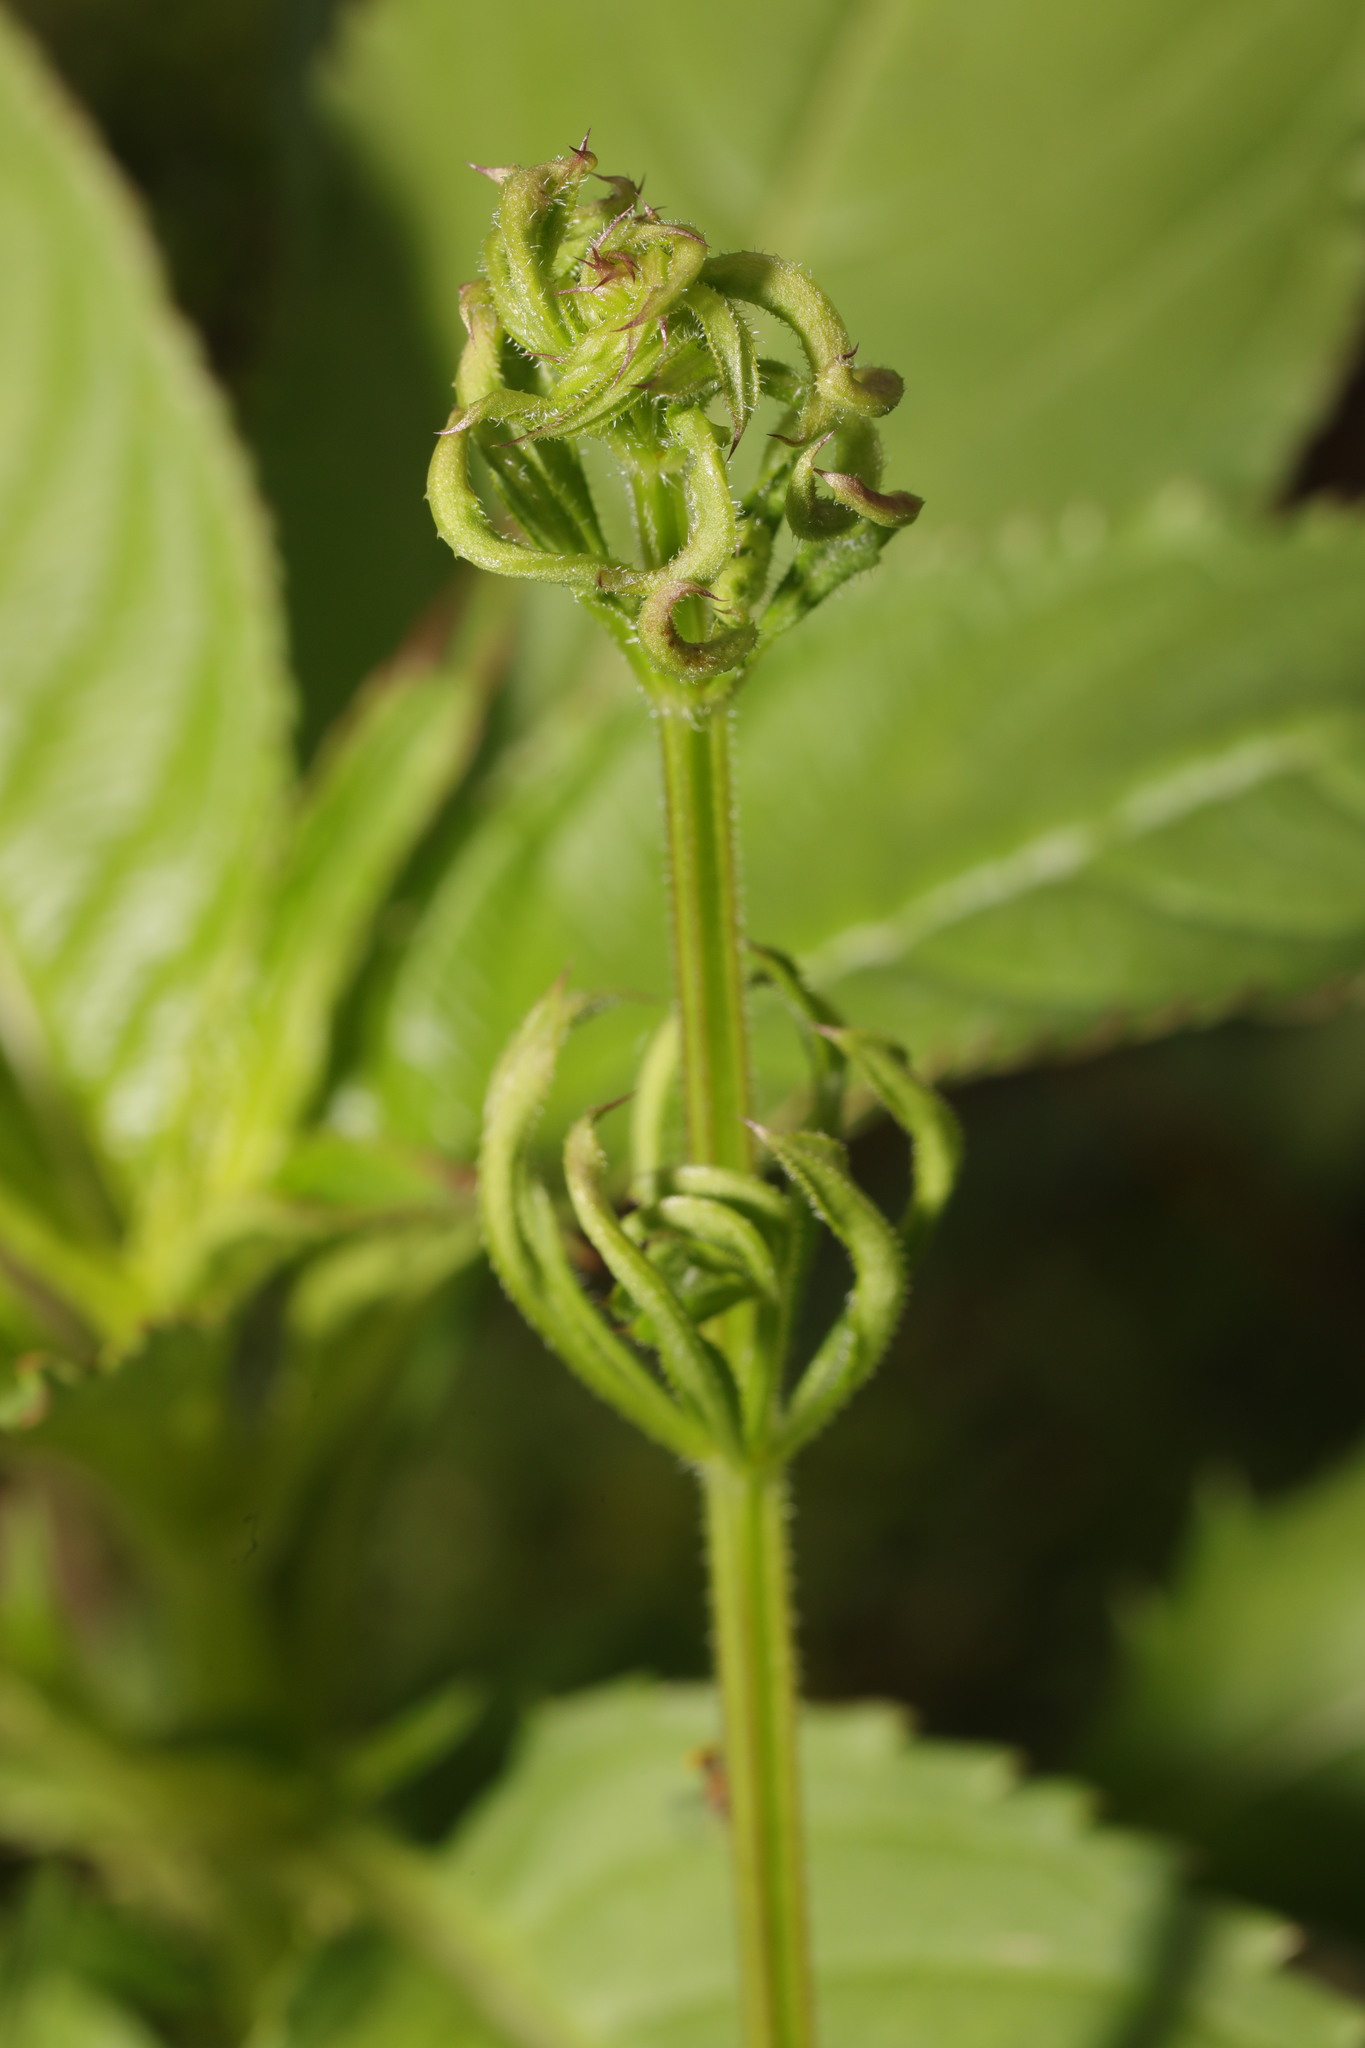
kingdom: Animalia
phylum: Arthropoda
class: Arachnida
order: Trombidiformes
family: Eriophyidae
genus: Cecidophyes
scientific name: Cecidophyes rouhollahi
